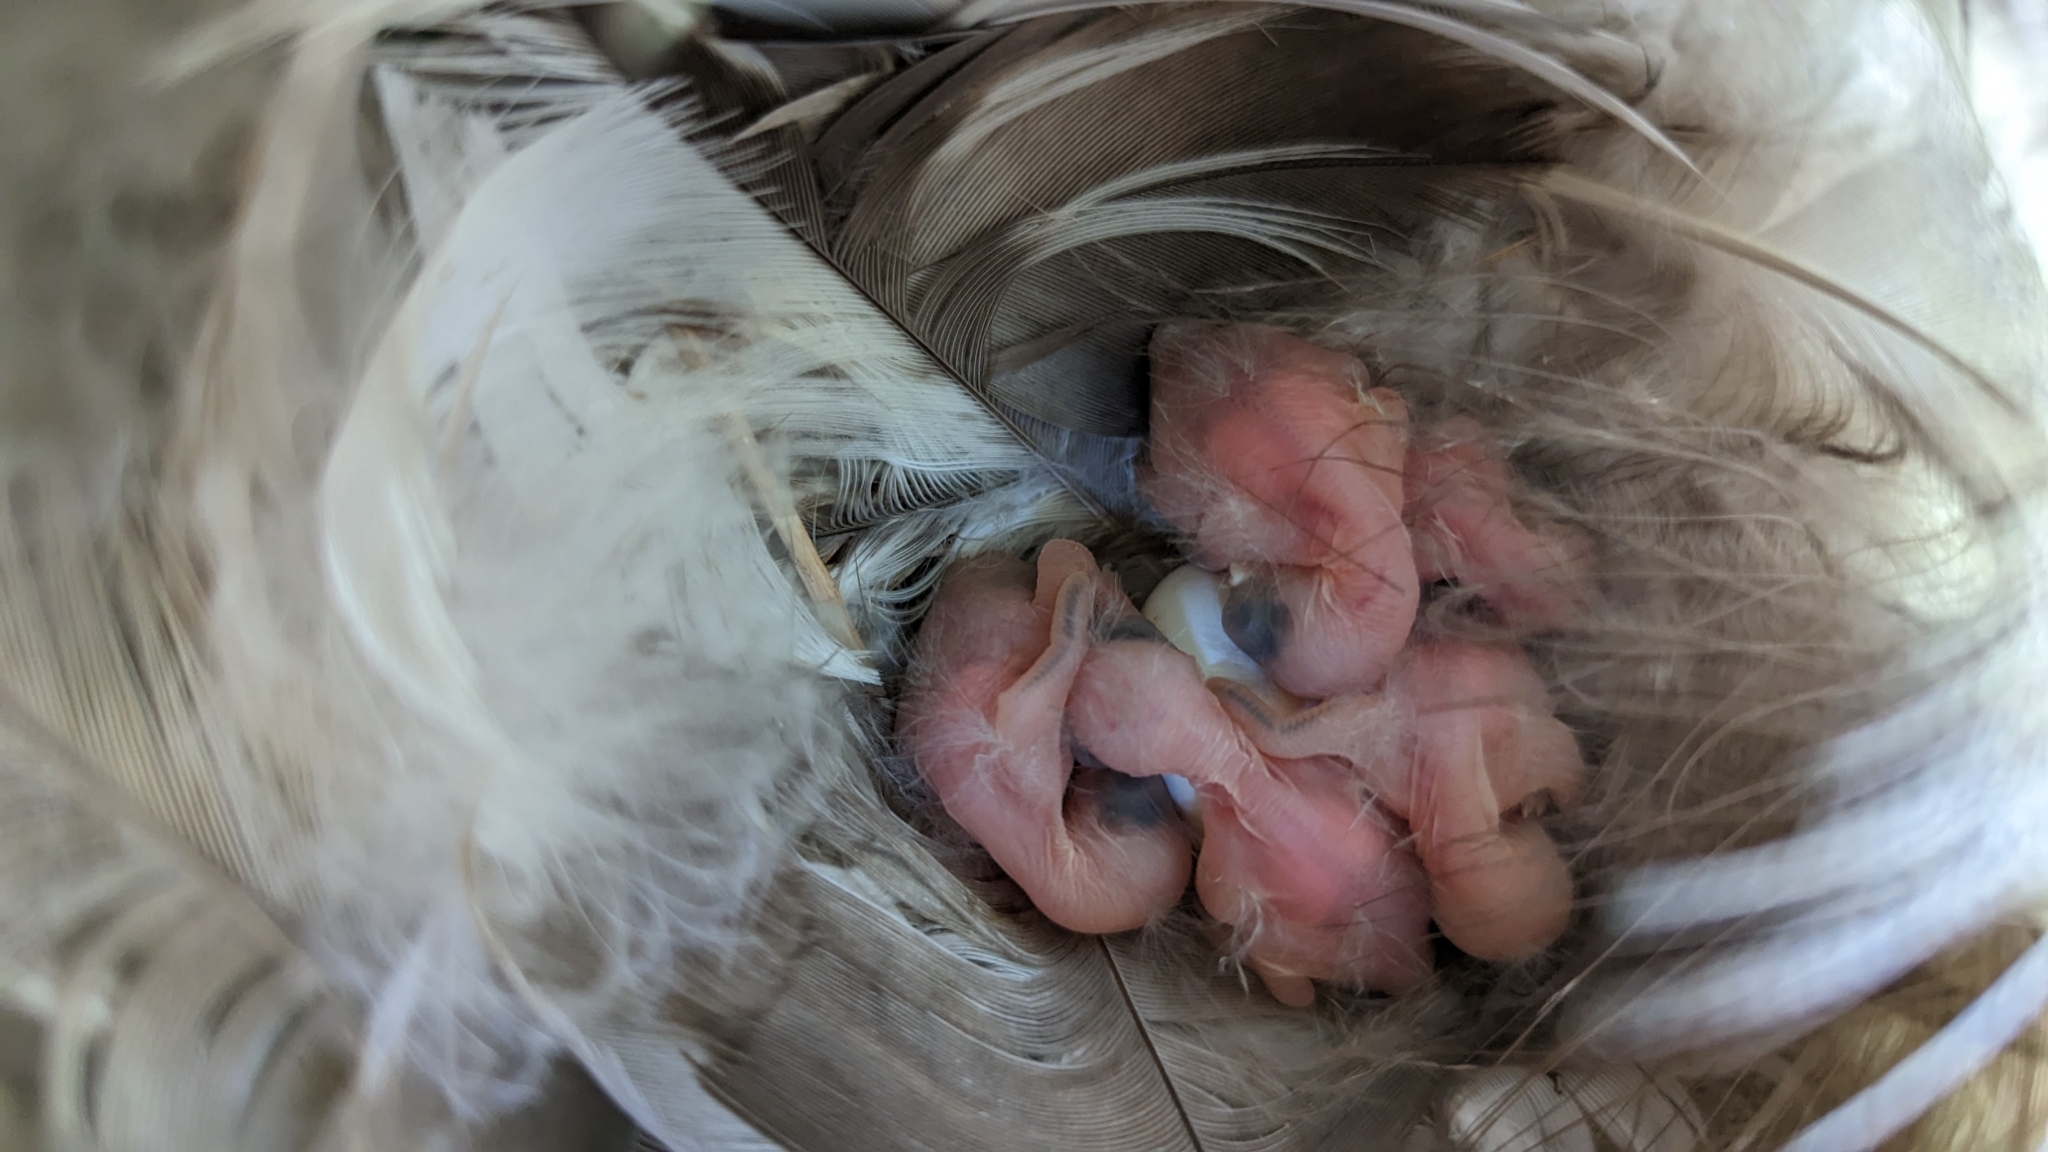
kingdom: Animalia
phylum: Chordata
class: Aves
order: Passeriformes
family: Hirundinidae
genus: Tachycineta
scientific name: Tachycineta bicolor
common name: Tree swallow
